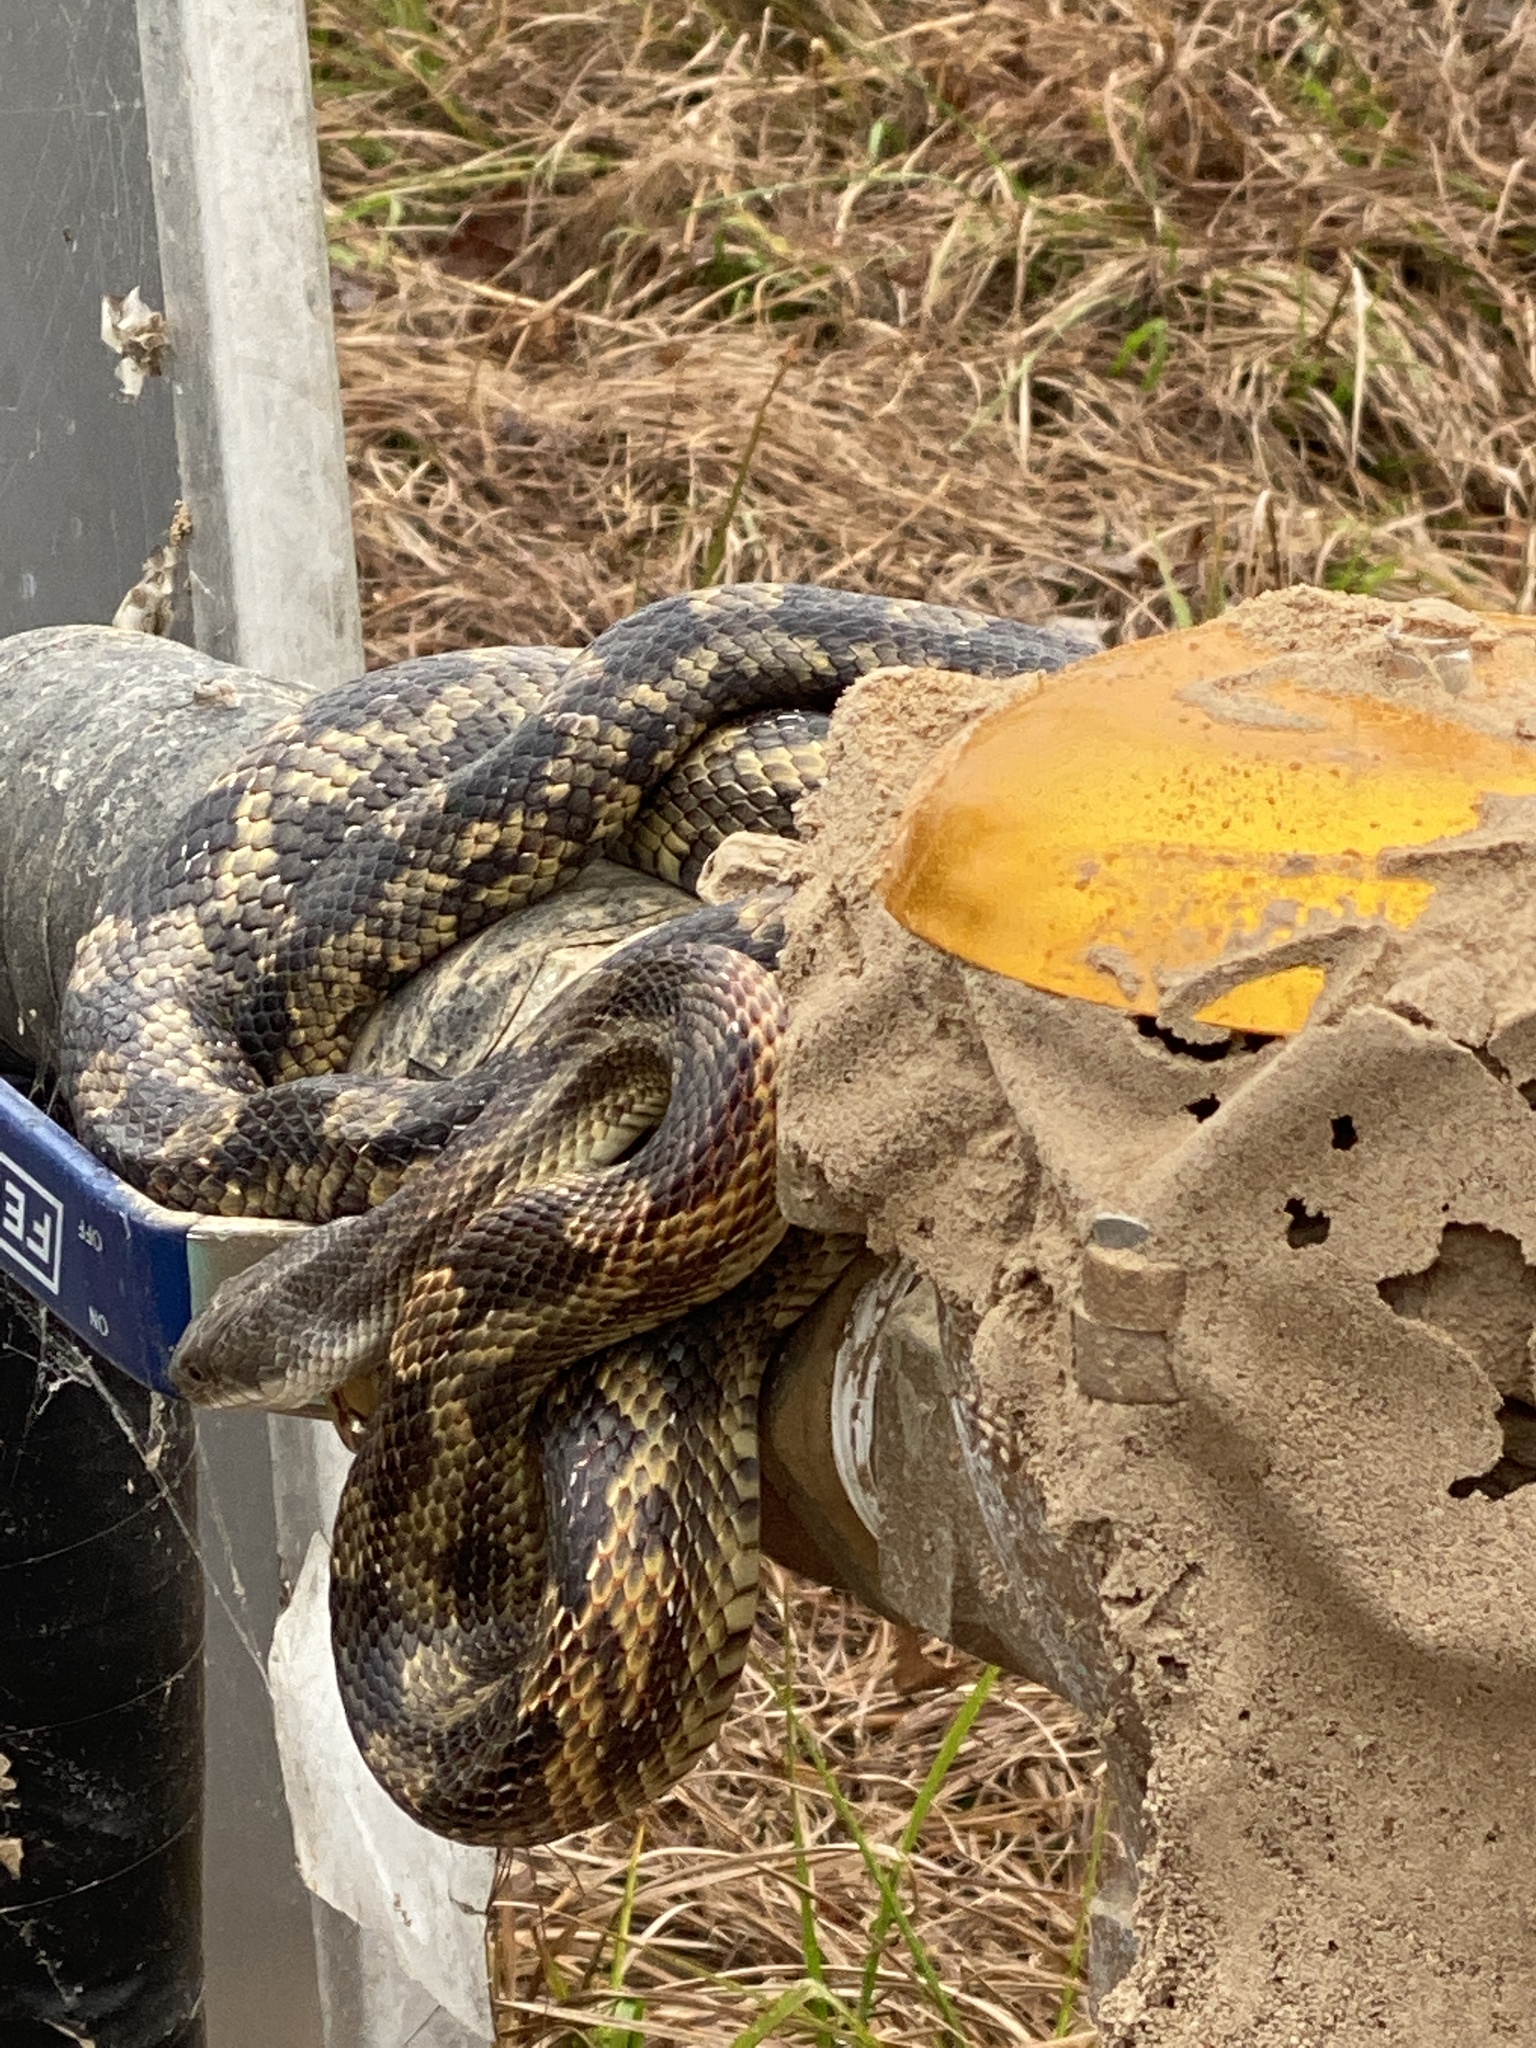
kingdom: Animalia
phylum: Chordata
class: Squamata
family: Colubridae
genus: Pantherophis
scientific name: Pantherophis obsoletus
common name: Black rat snake
